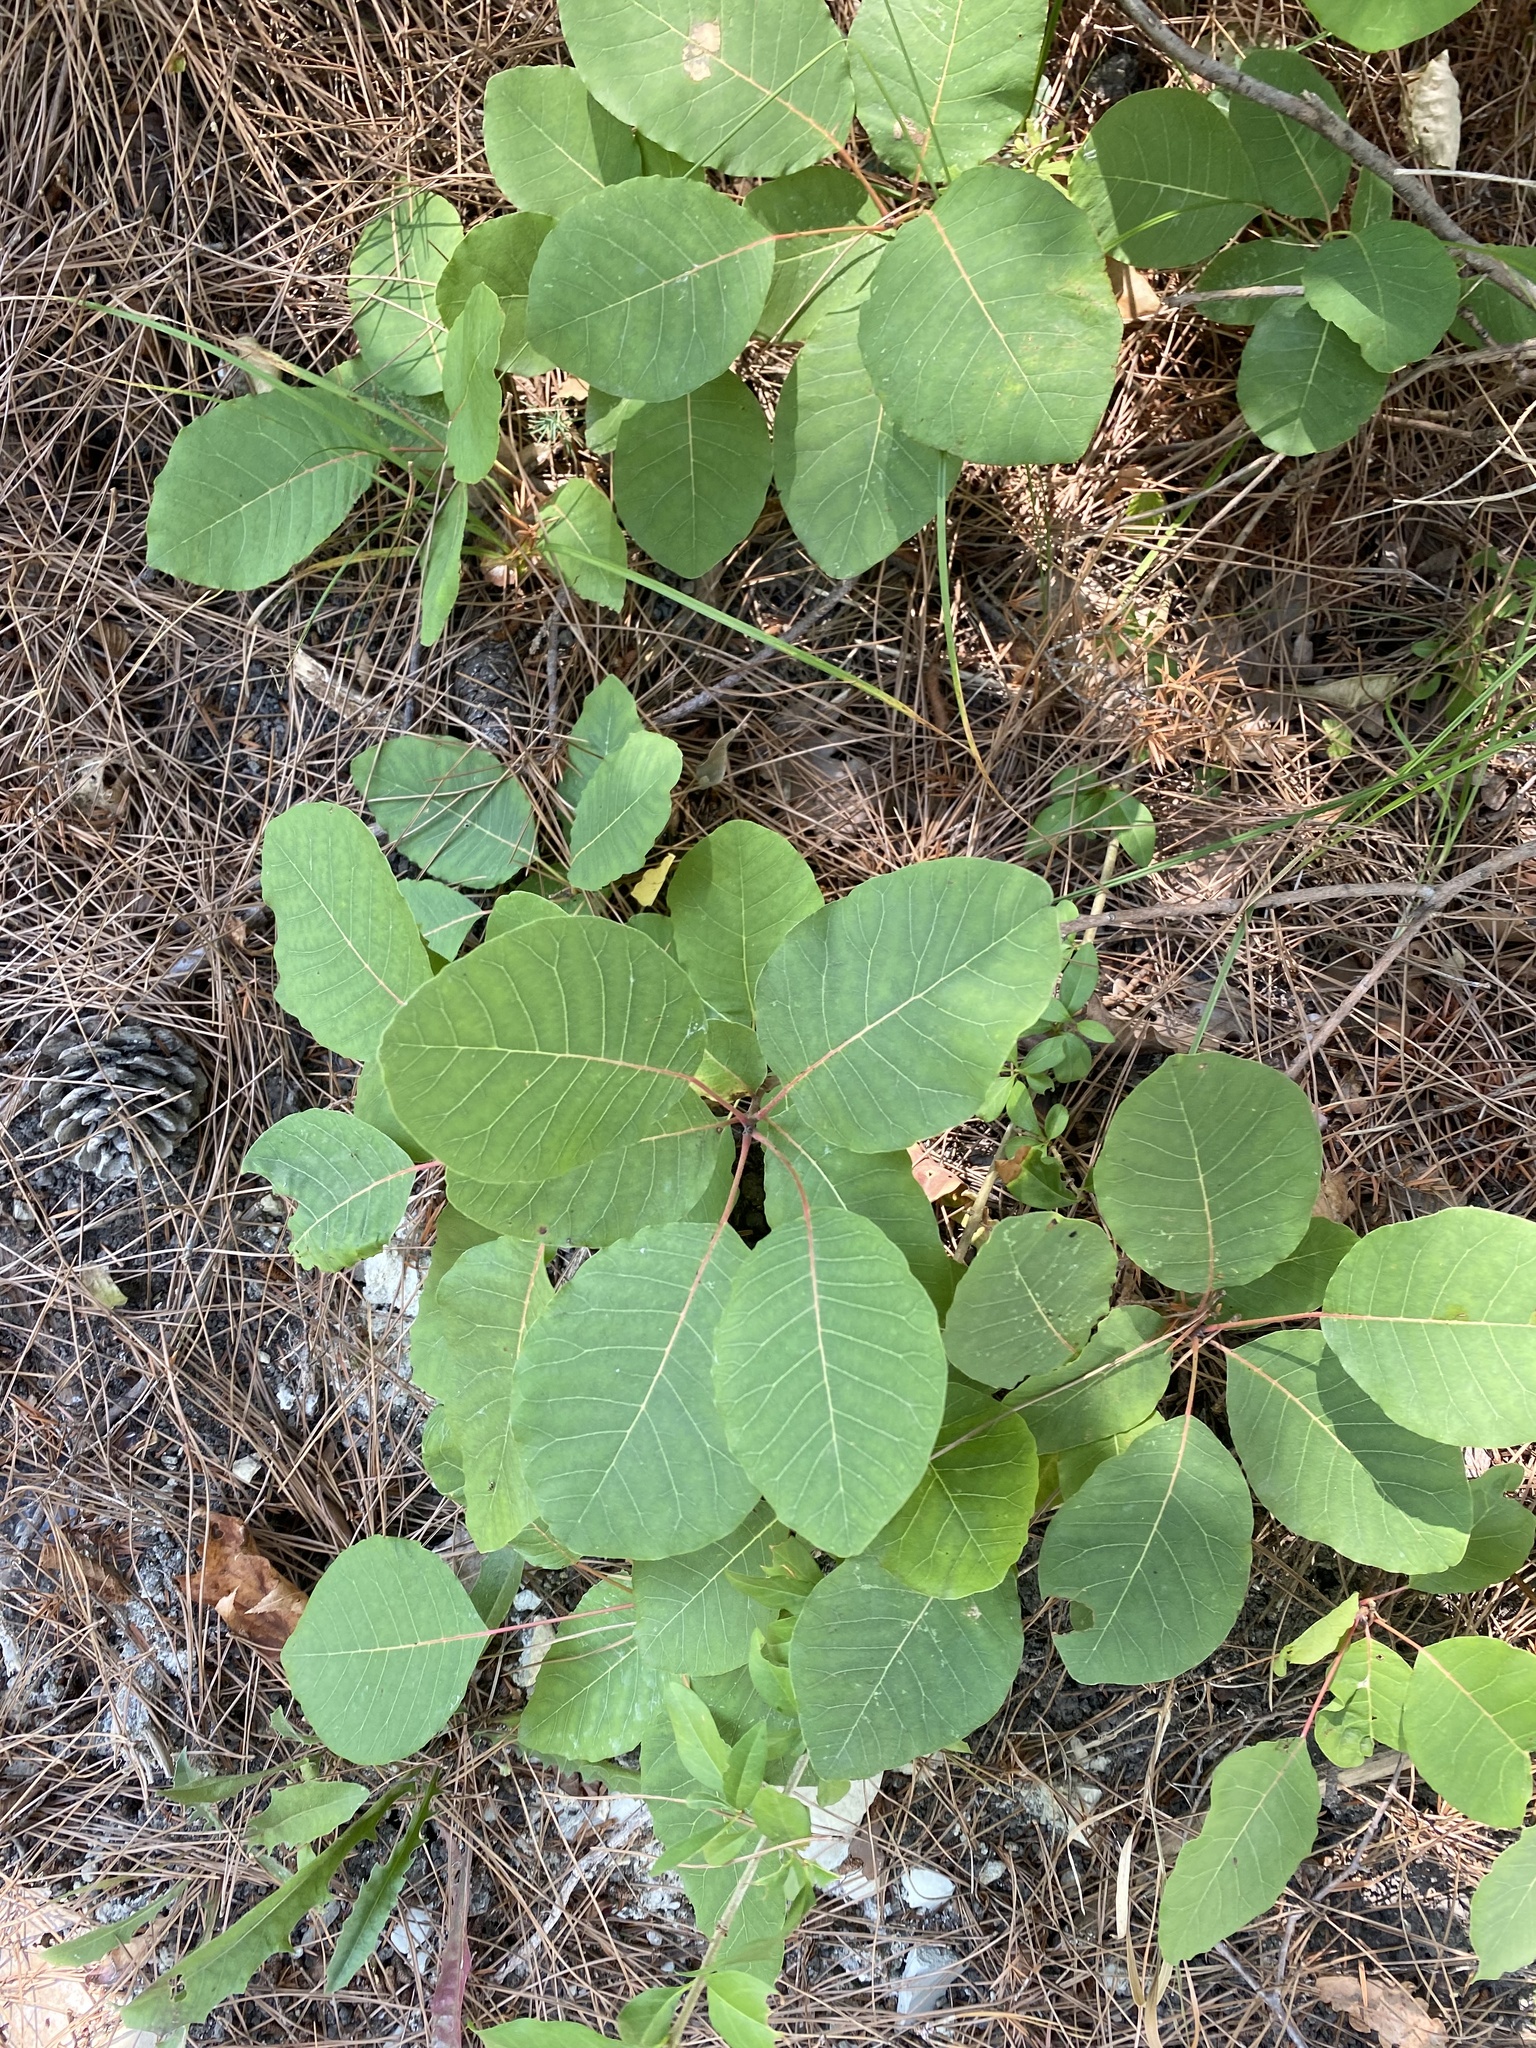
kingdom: Plantae
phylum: Tracheophyta
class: Magnoliopsida
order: Sapindales
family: Anacardiaceae
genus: Cotinus
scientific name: Cotinus coggygria
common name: Smoke-tree
